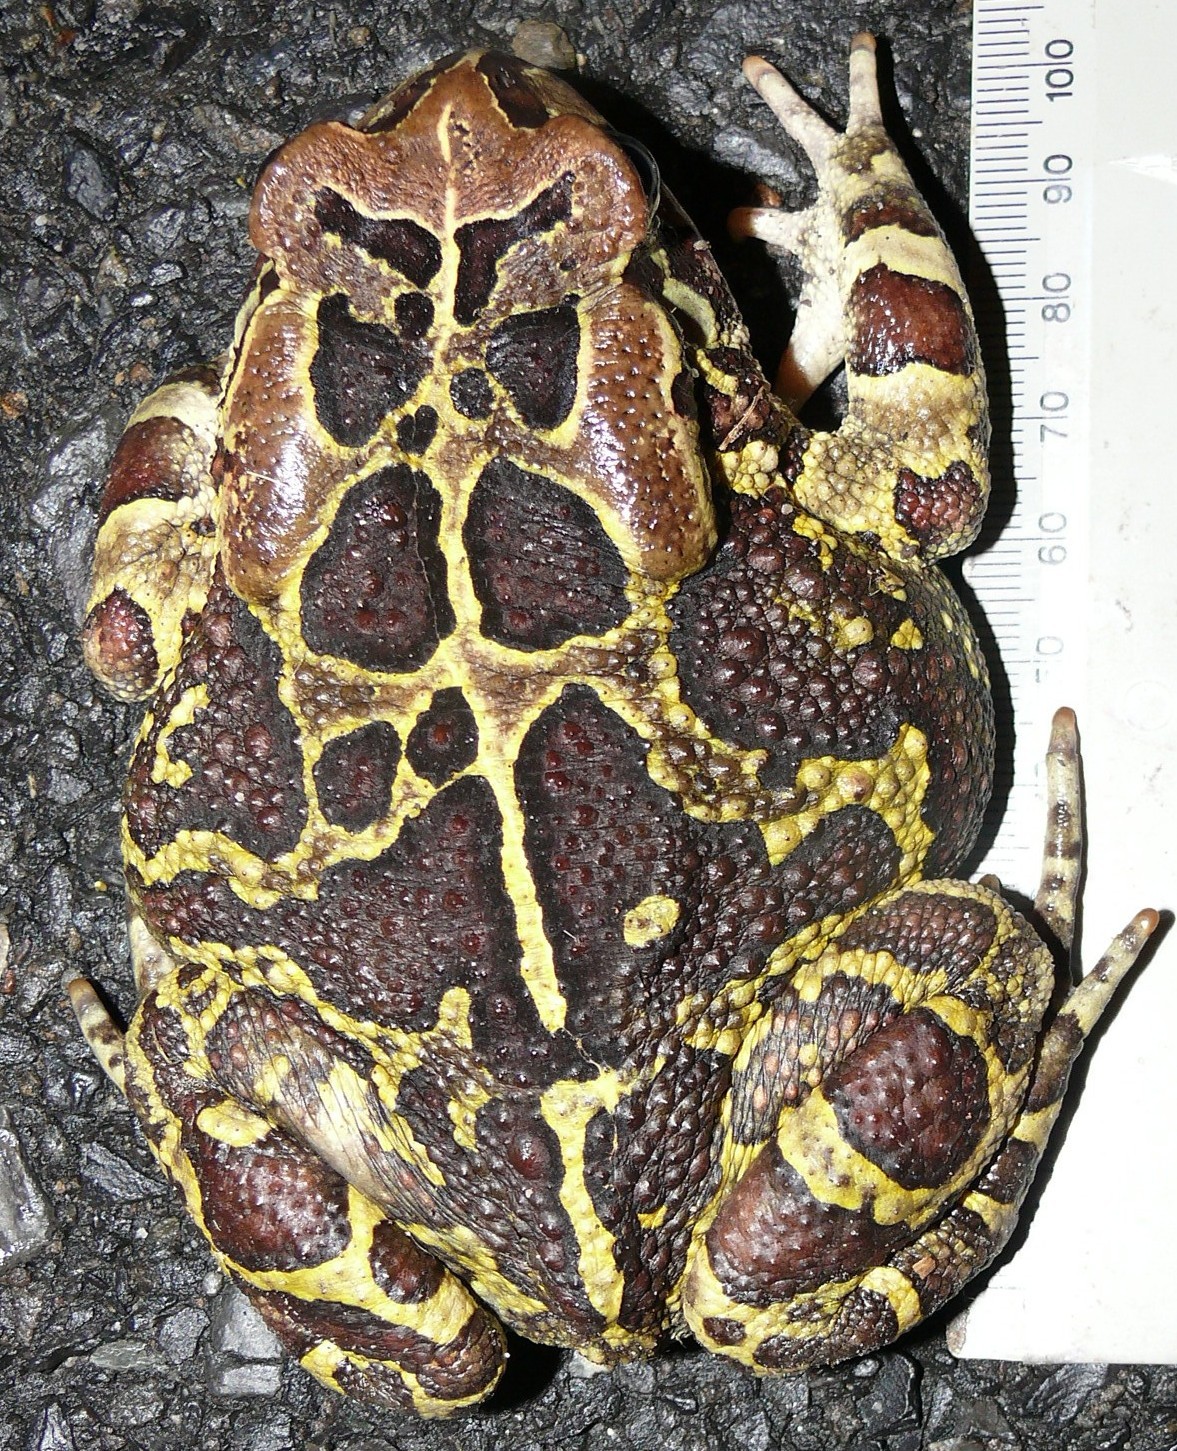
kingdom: Animalia
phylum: Chordata
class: Amphibia
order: Anura
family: Bufonidae
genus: Sclerophrys
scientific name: Sclerophrys pantherina
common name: Panther toad
